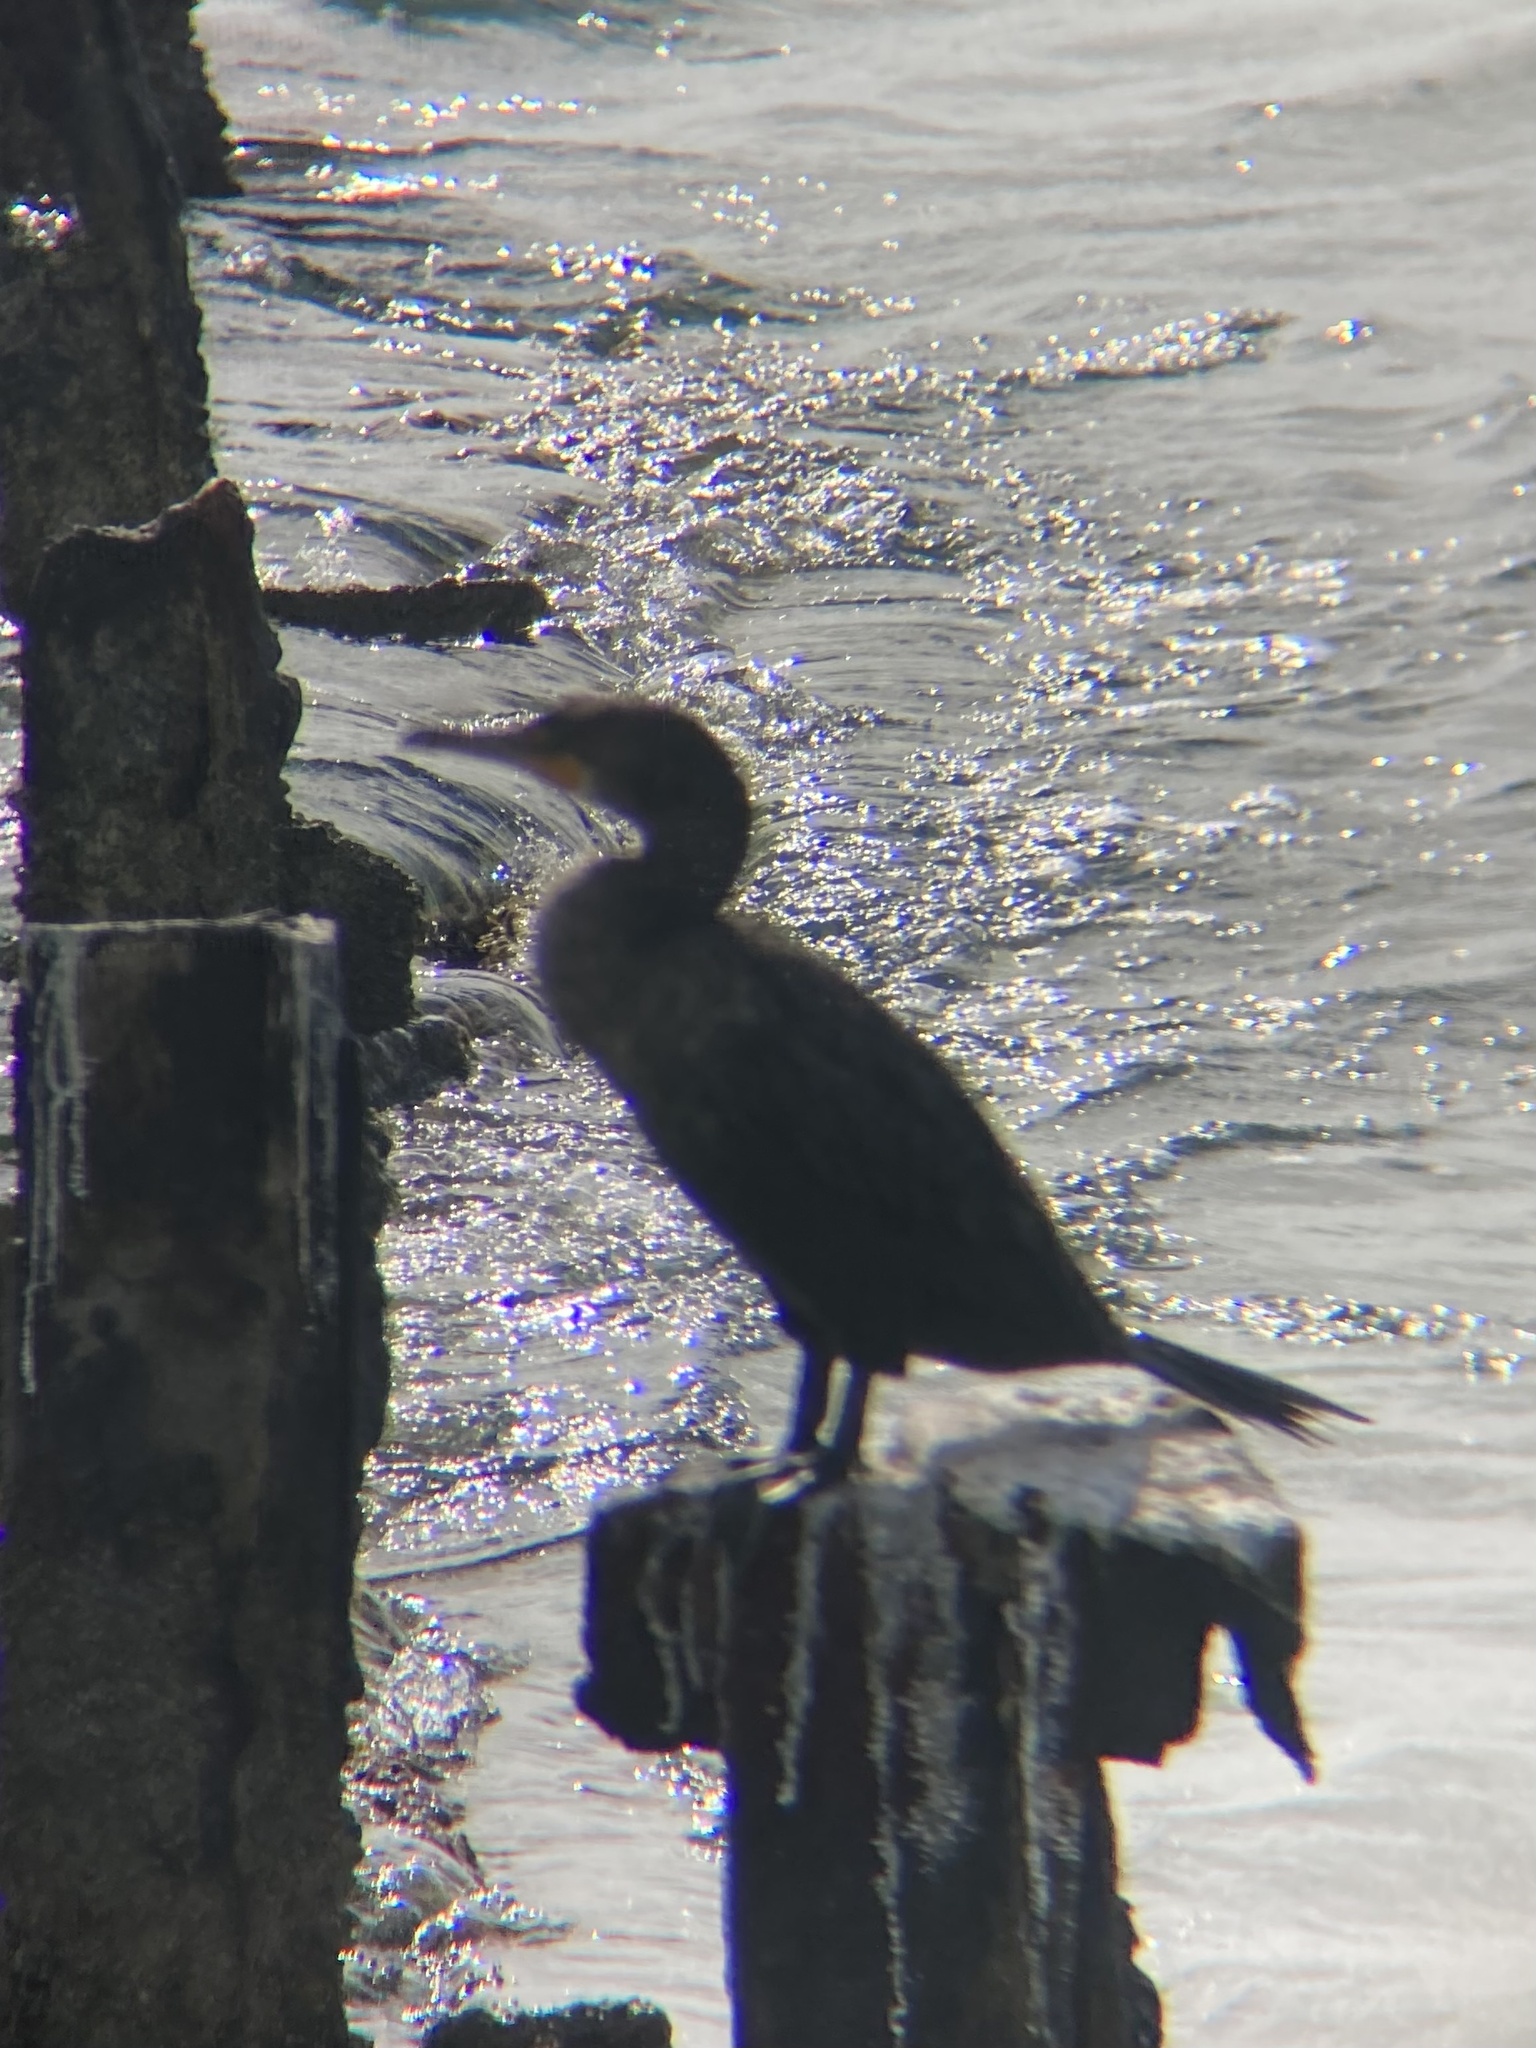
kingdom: Animalia
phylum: Chordata
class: Aves
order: Suliformes
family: Phalacrocoracidae
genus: Phalacrocorax
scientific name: Phalacrocorax auritus
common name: Double-crested cormorant
